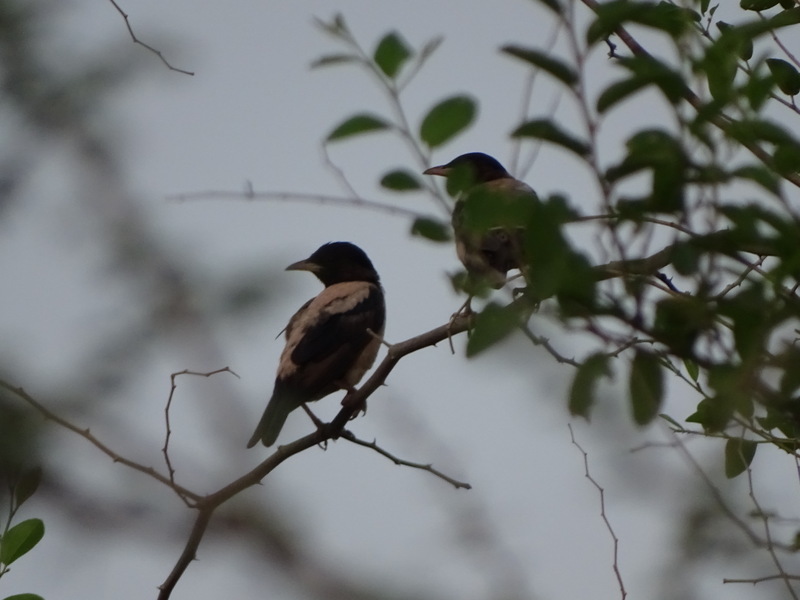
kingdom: Animalia
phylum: Chordata
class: Aves
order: Passeriformes
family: Sturnidae
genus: Pastor
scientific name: Pastor roseus
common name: Rosy starling
